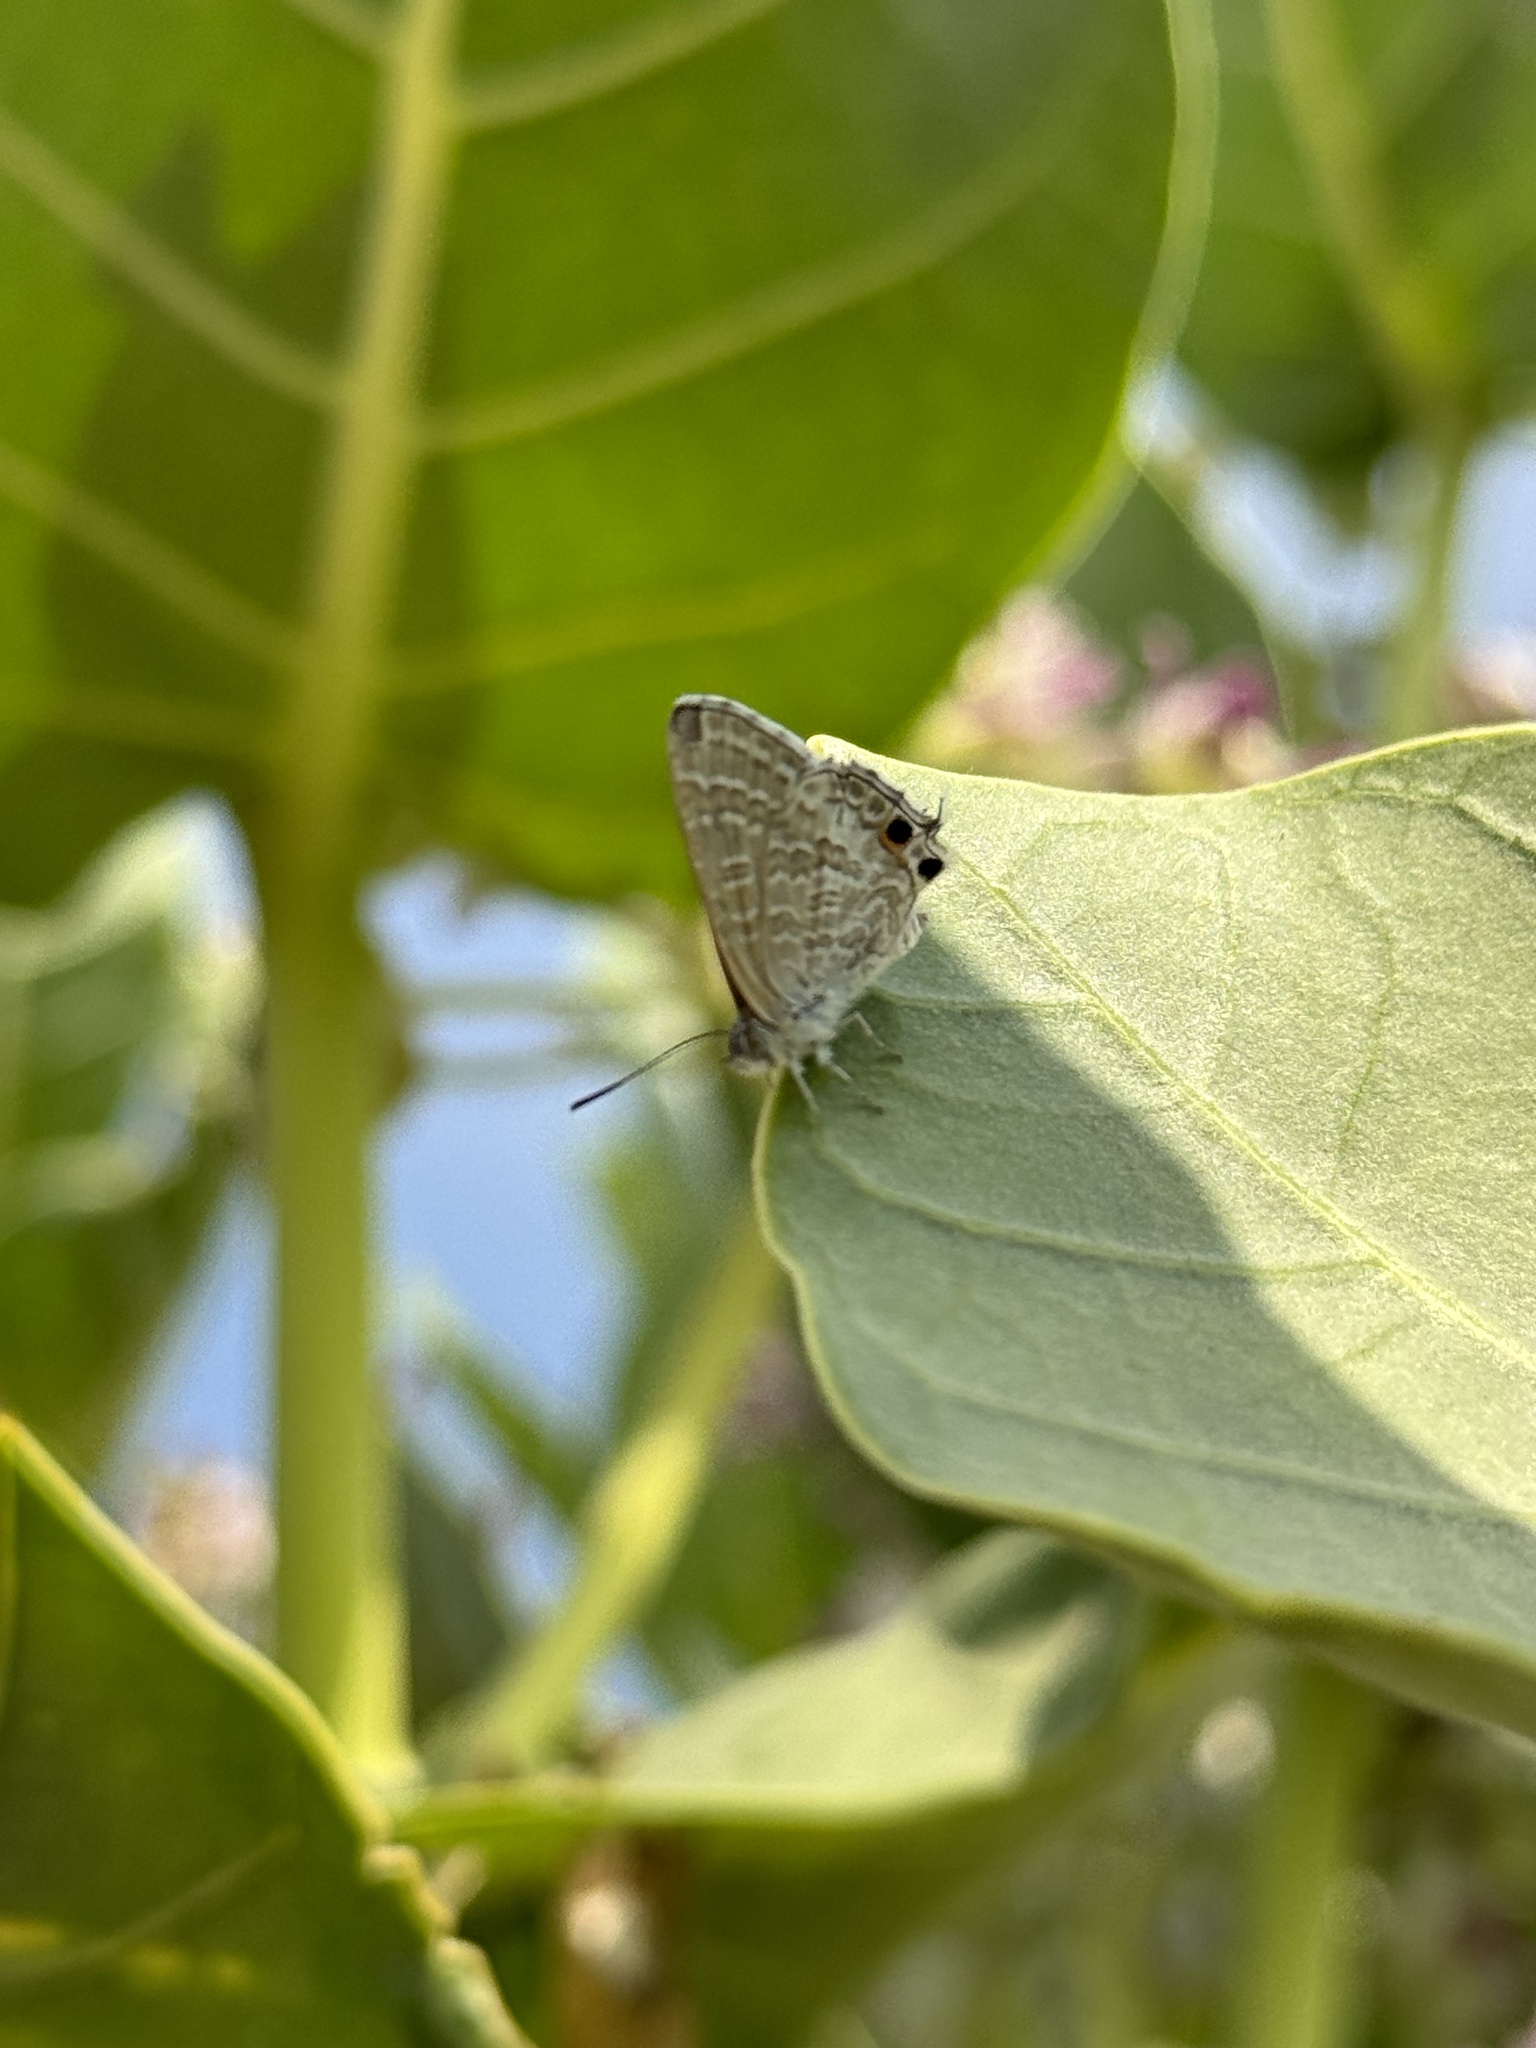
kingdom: Animalia
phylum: Arthropoda
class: Insecta
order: Lepidoptera
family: Lycaenidae
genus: Theclinesthes
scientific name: Theclinesthes miskini
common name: Wattle blue
